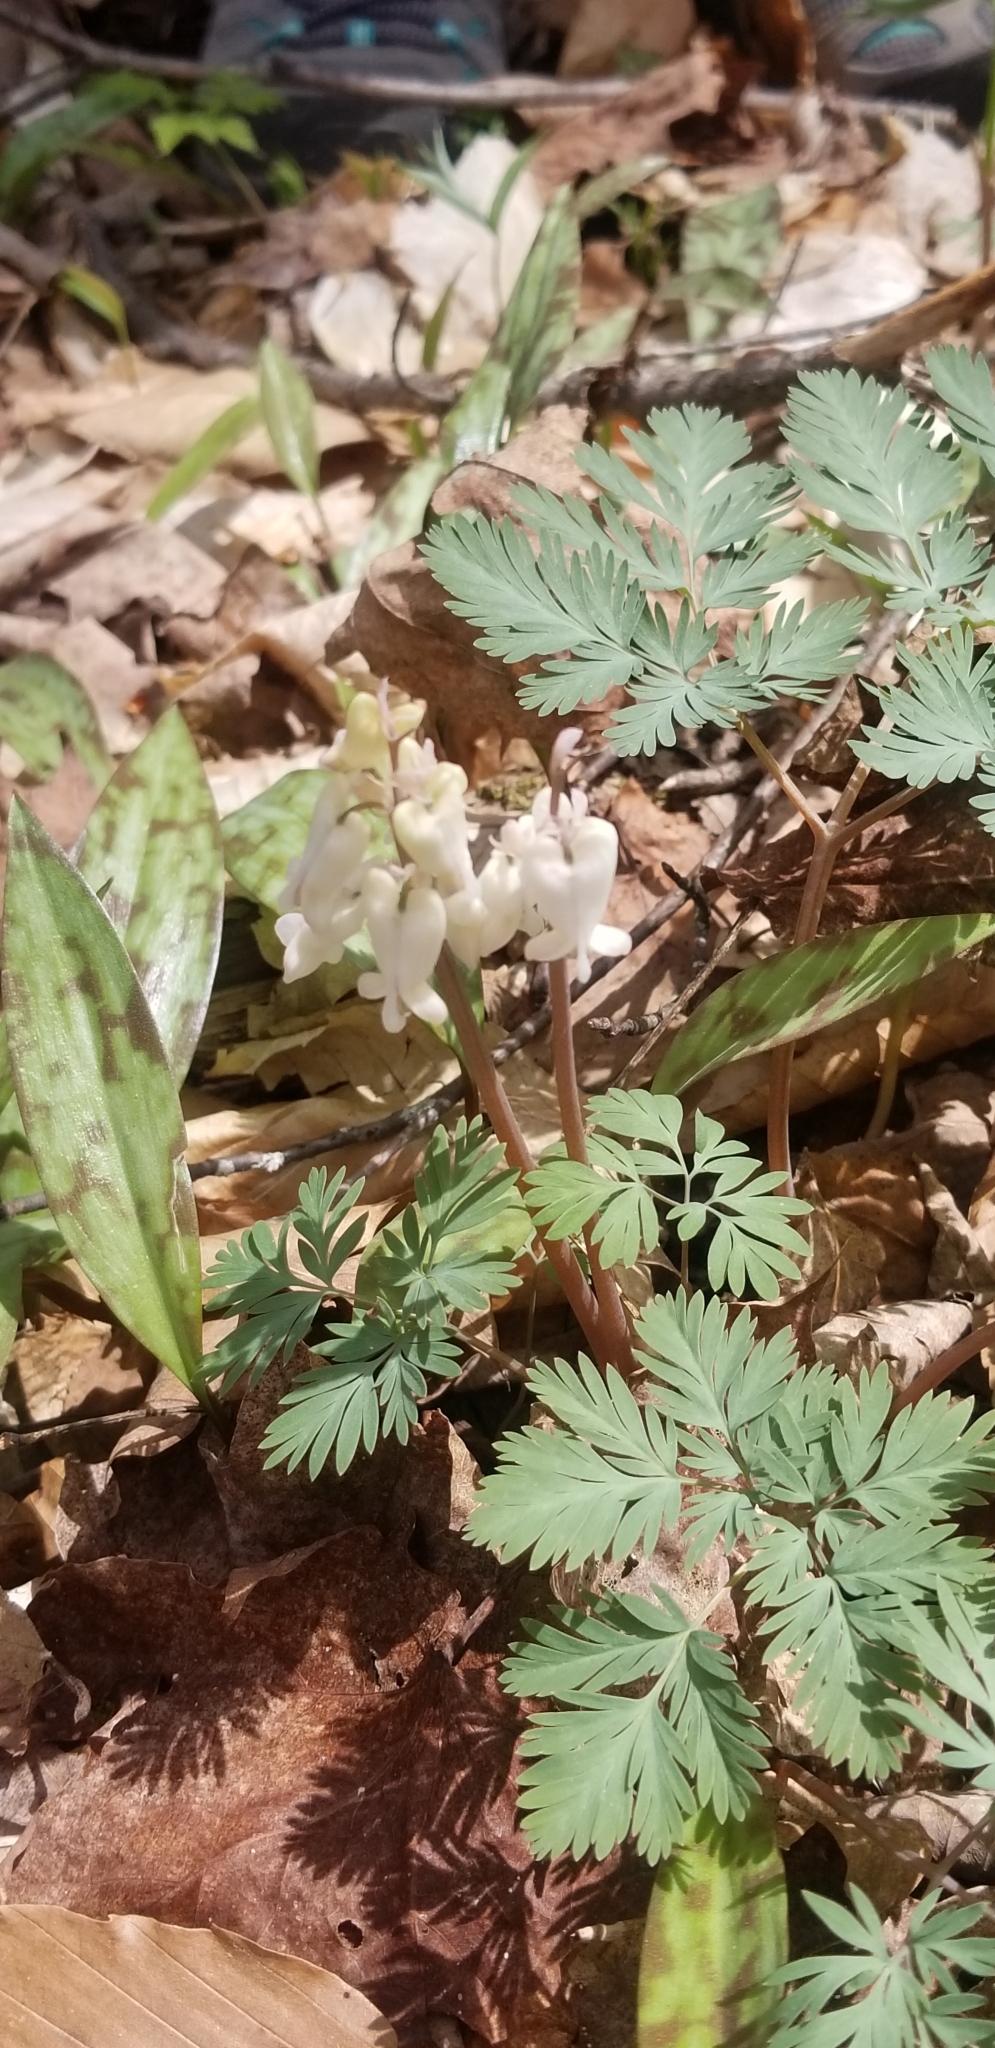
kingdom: Plantae
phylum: Tracheophyta
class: Magnoliopsida
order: Ranunculales
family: Papaveraceae
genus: Dicentra
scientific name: Dicentra canadensis
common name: Squirrel-corn
